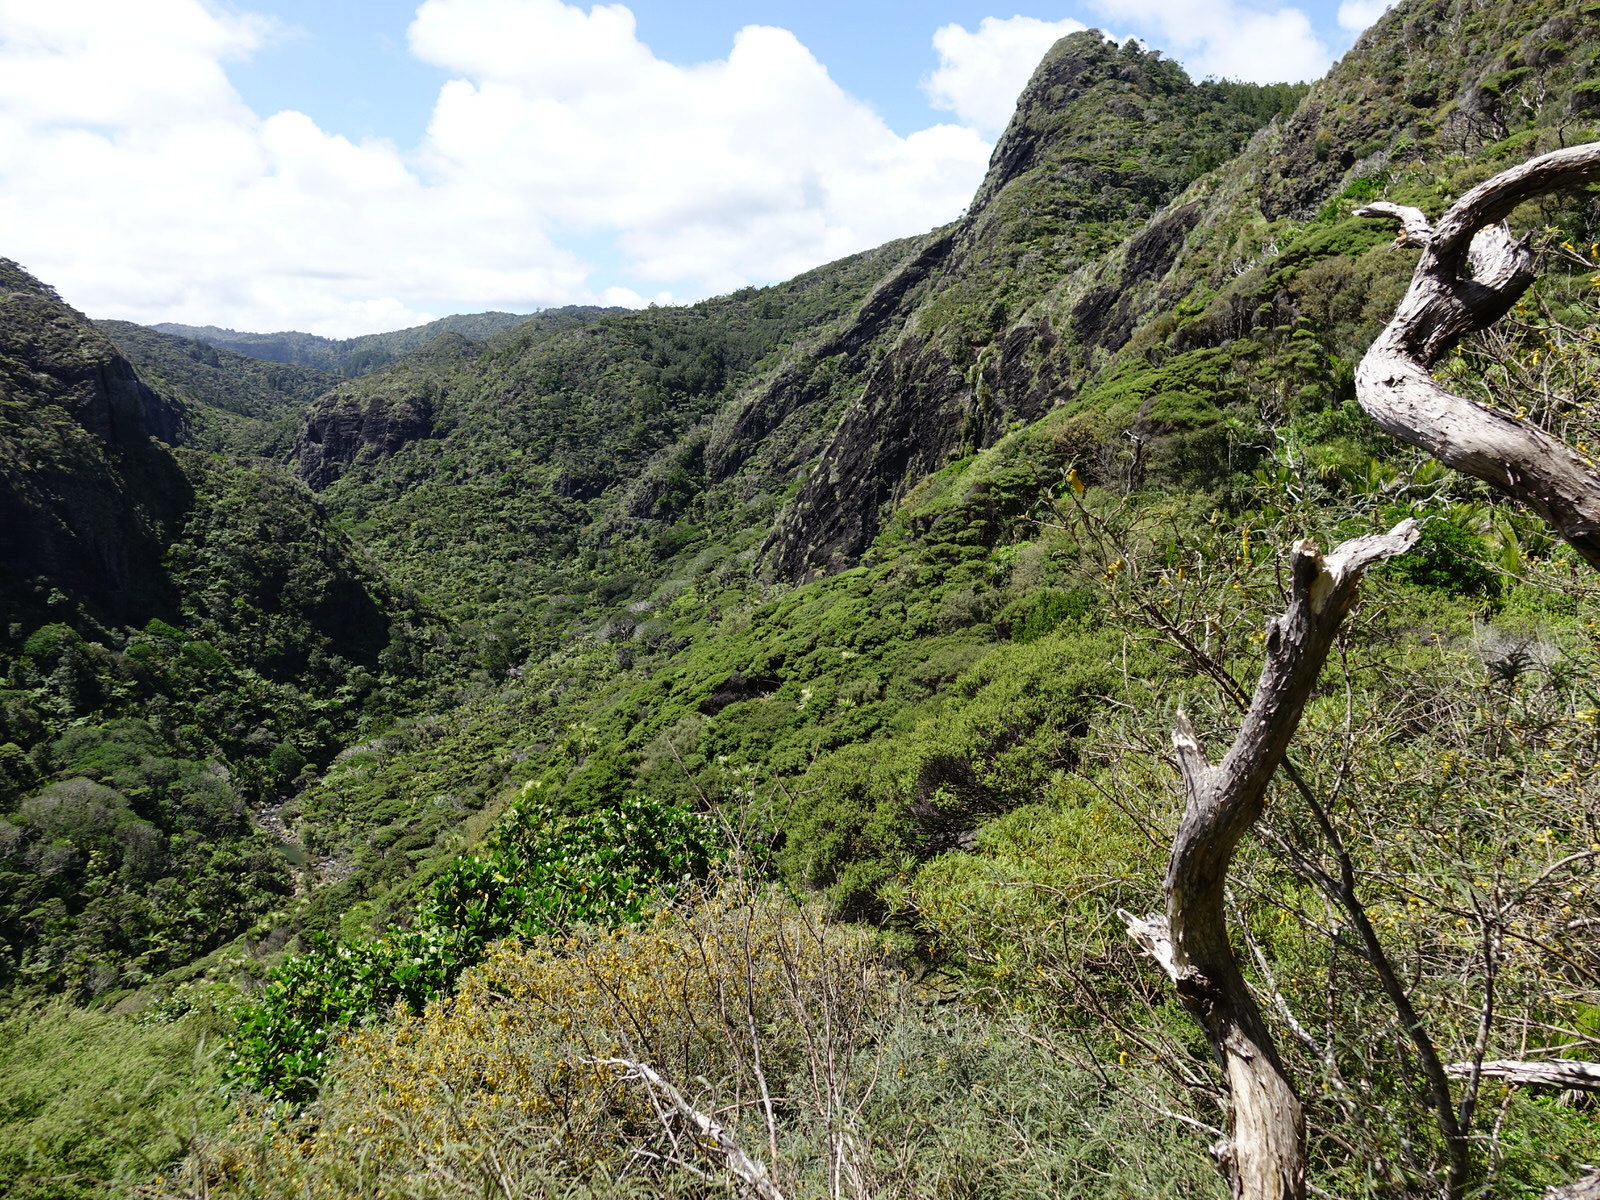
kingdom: Plantae
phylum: Tracheophyta
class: Magnoliopsida
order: Fabales
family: Fabaceae
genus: Sophora
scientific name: Sophora fulvida
